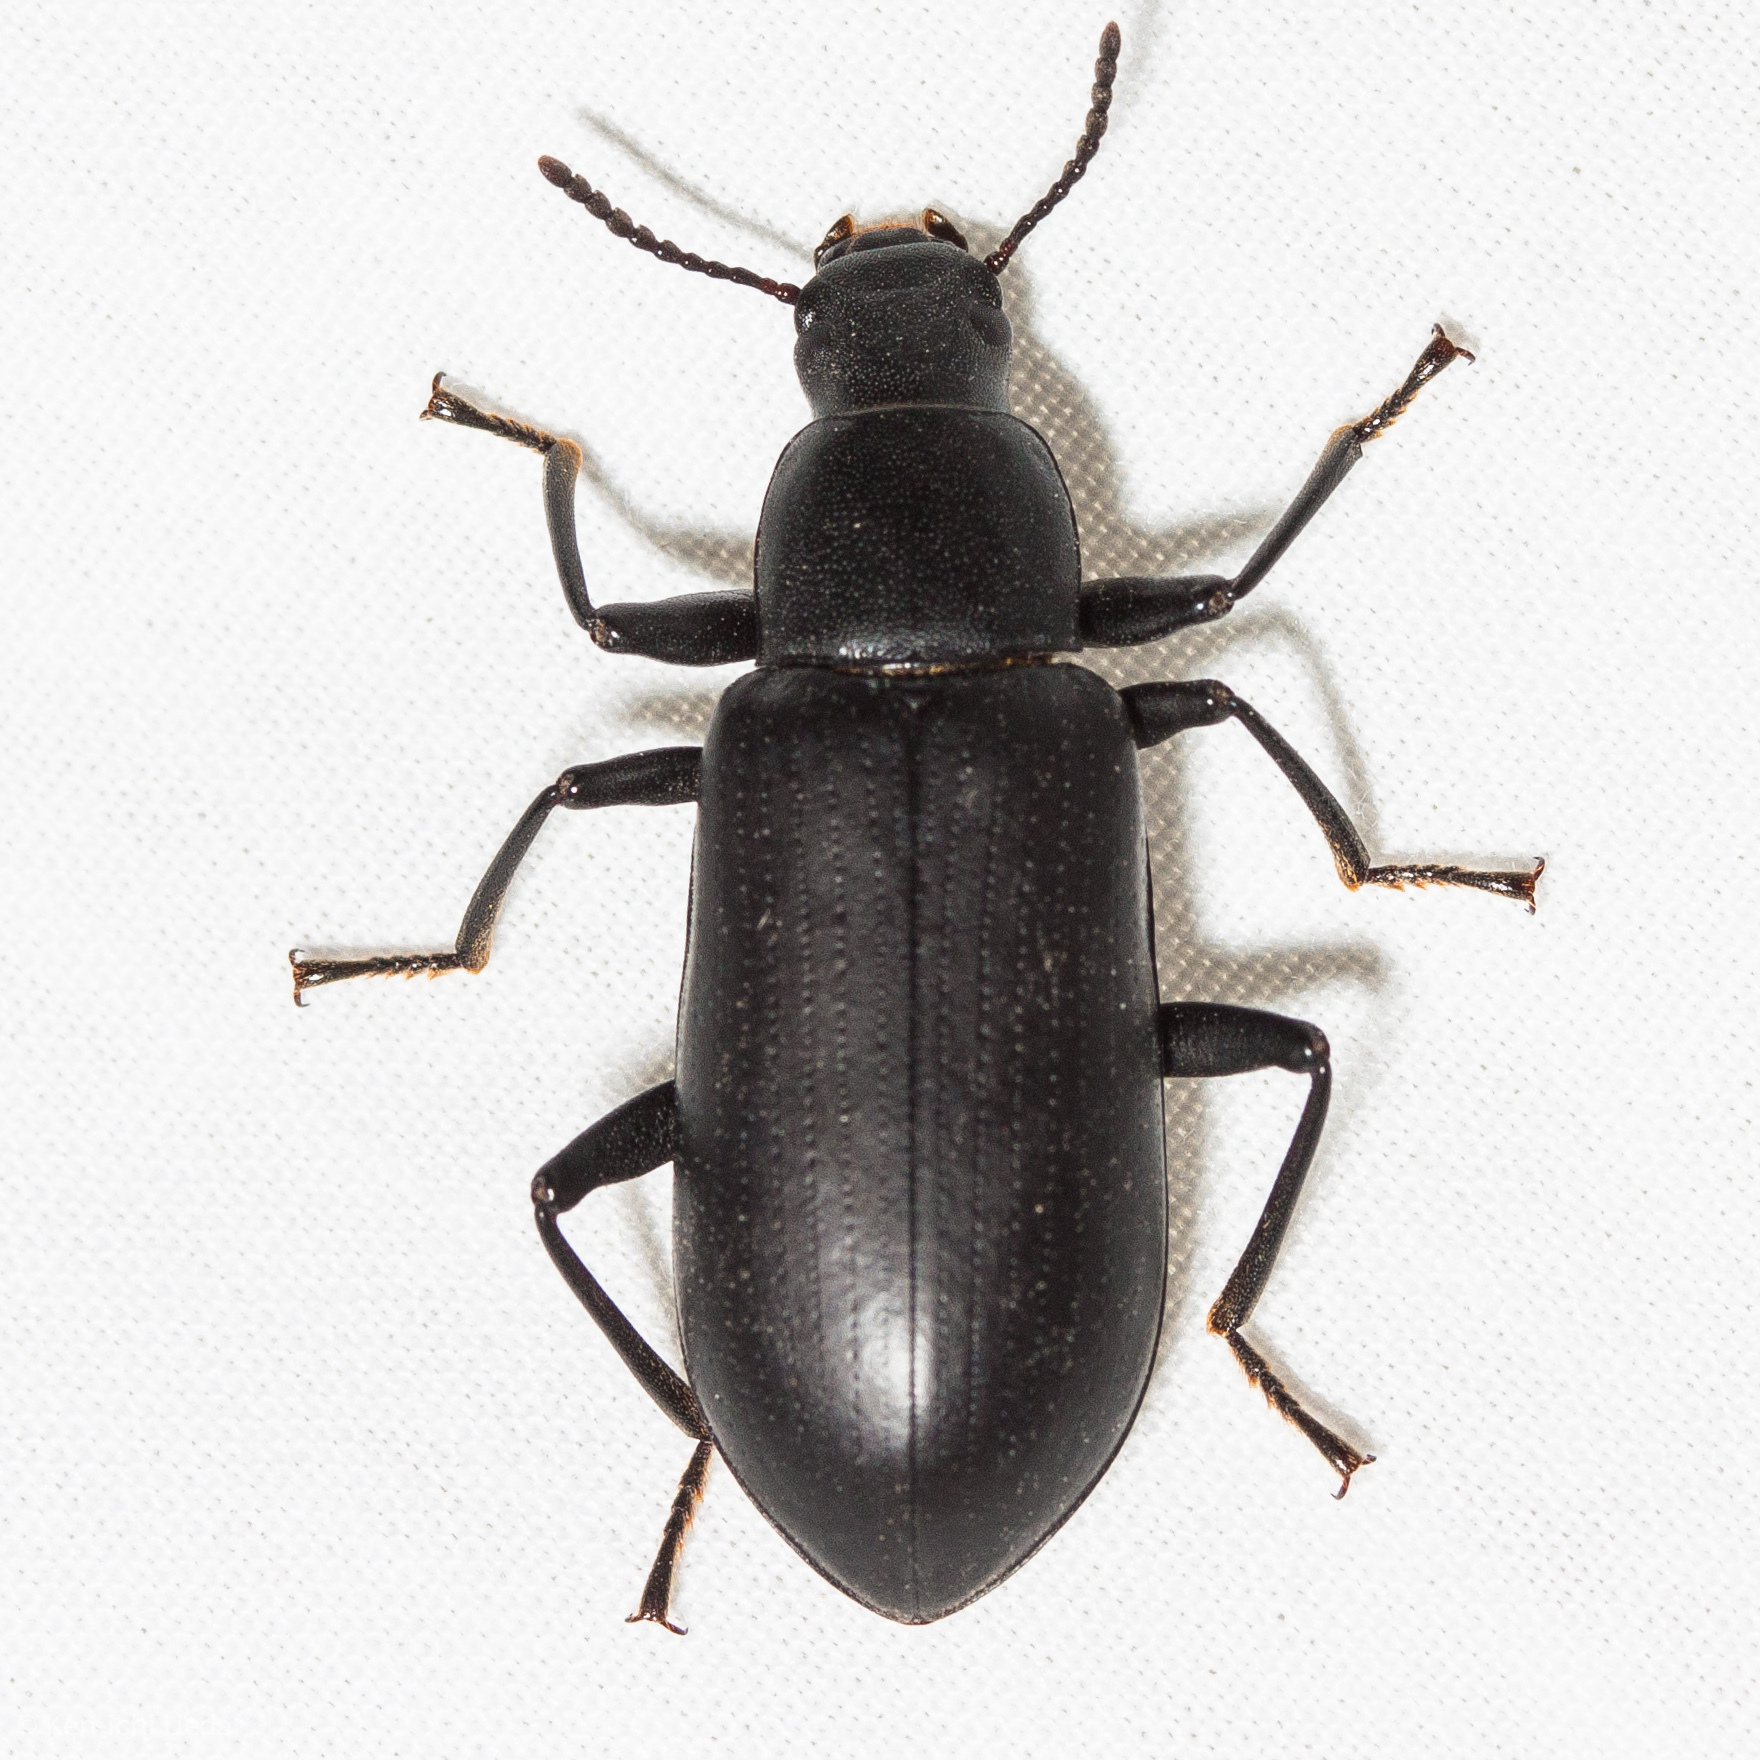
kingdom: Animalia
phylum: Arthropoda
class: Insecta
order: Coleoptera
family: Tenebrionidae
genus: Alobates
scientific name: Alobates pensylvanicus
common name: False mealworm beetle
